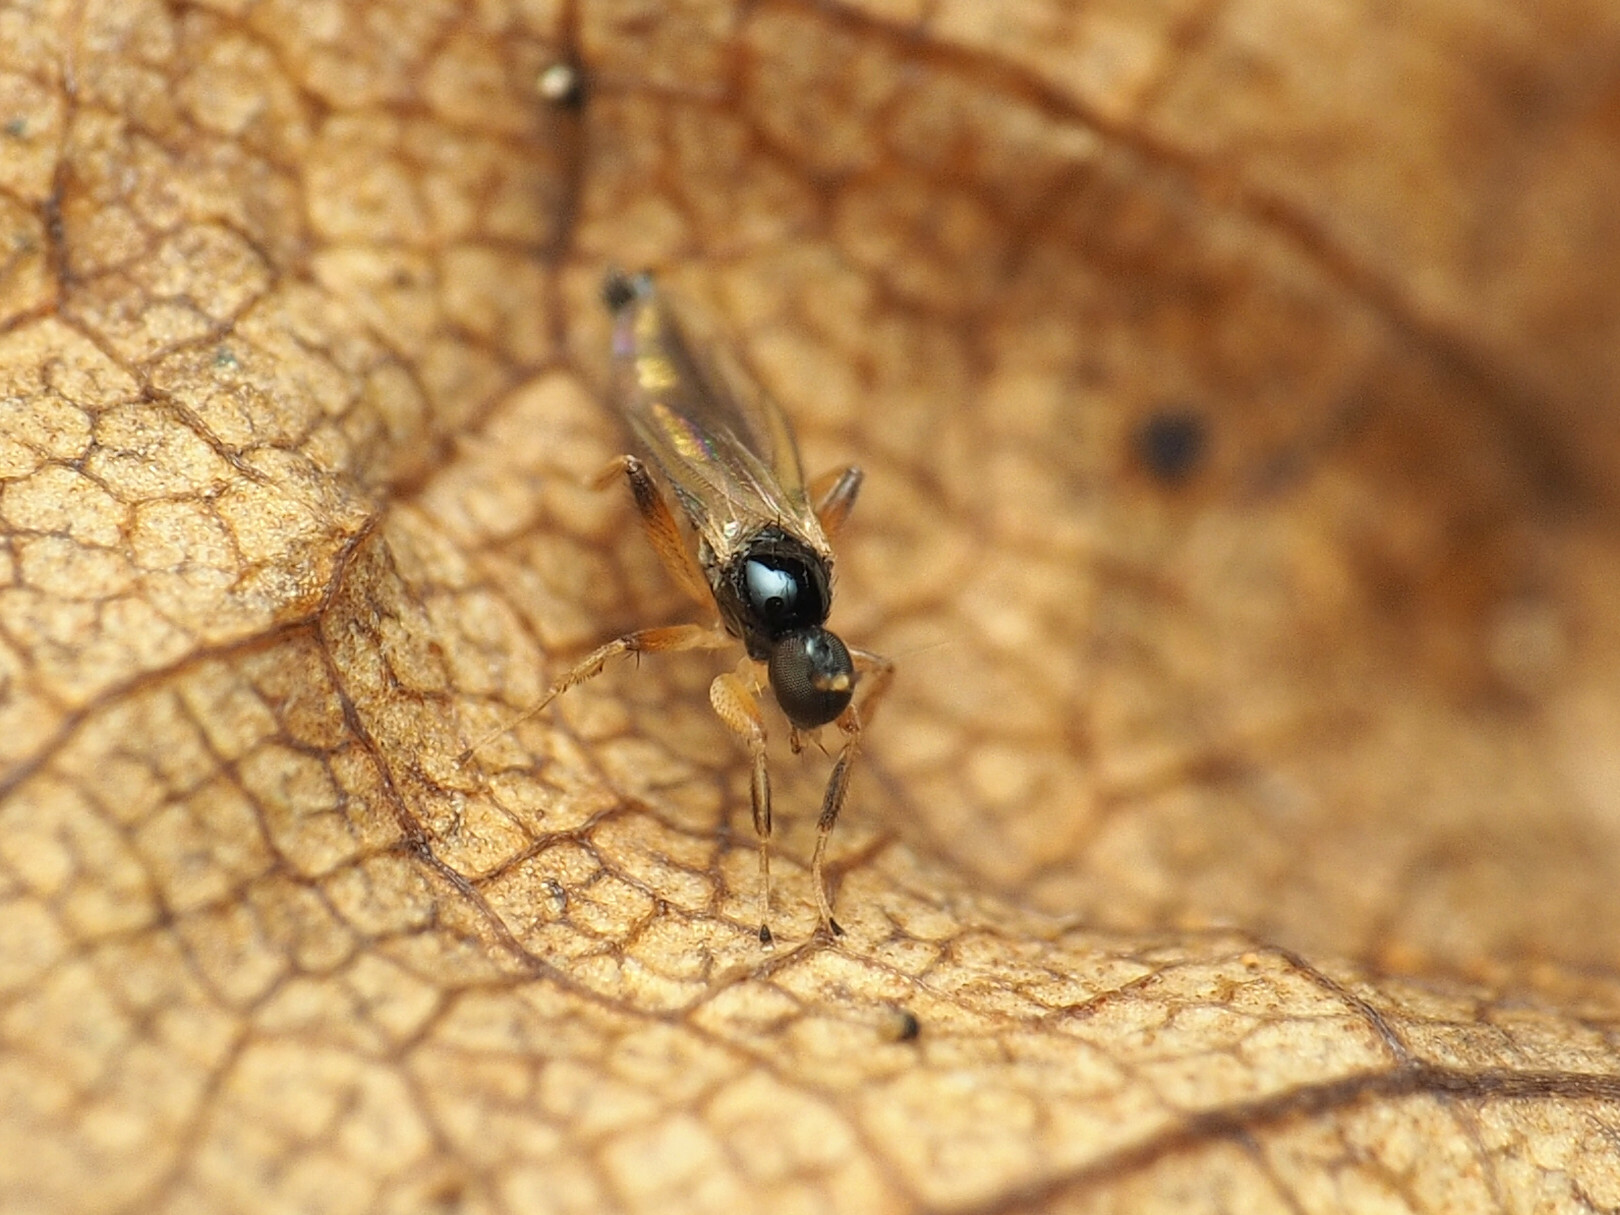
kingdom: Animalia
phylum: Arthropoda
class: Insecta
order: Diptera
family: Hybotidae
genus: Stilpon
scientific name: Stilpon ctenistes
